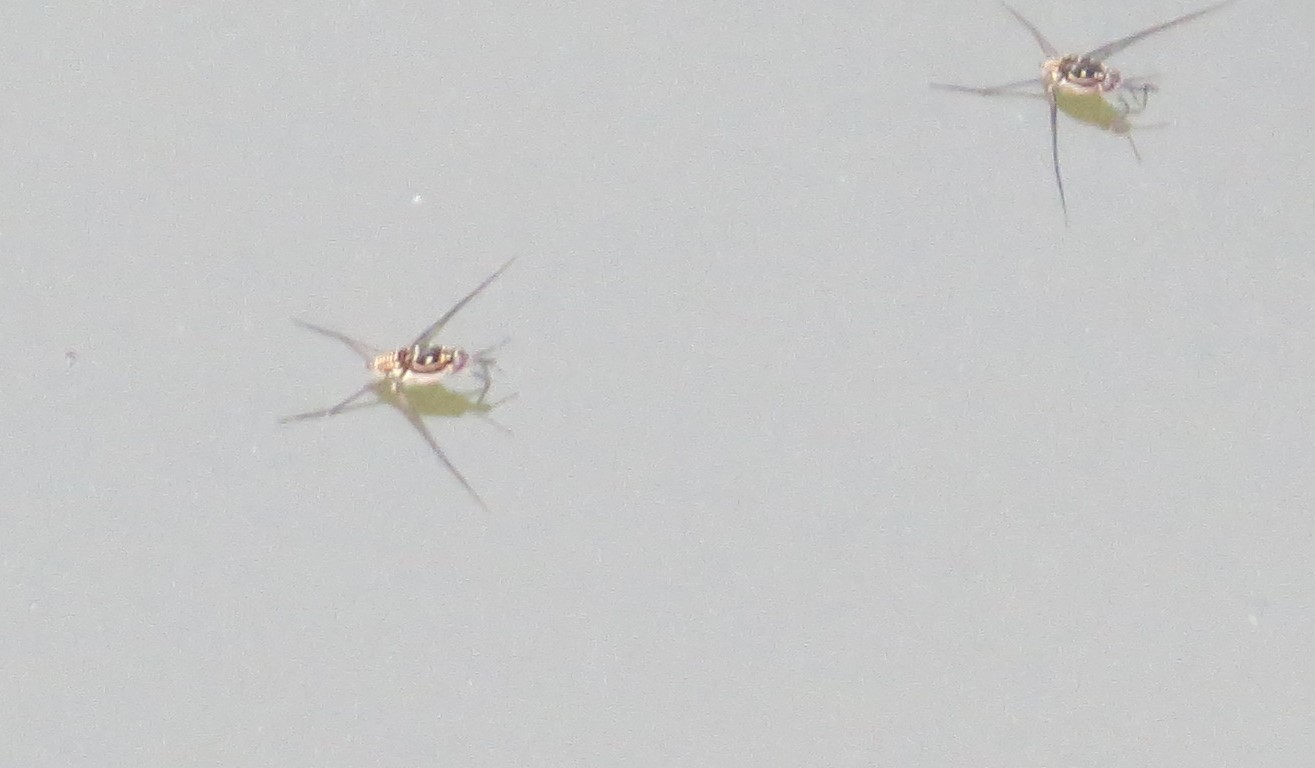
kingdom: Animalia
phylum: Arthropoda
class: Insecta
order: Hemiptera
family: Gerridae
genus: Trepobates
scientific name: Trepobates
